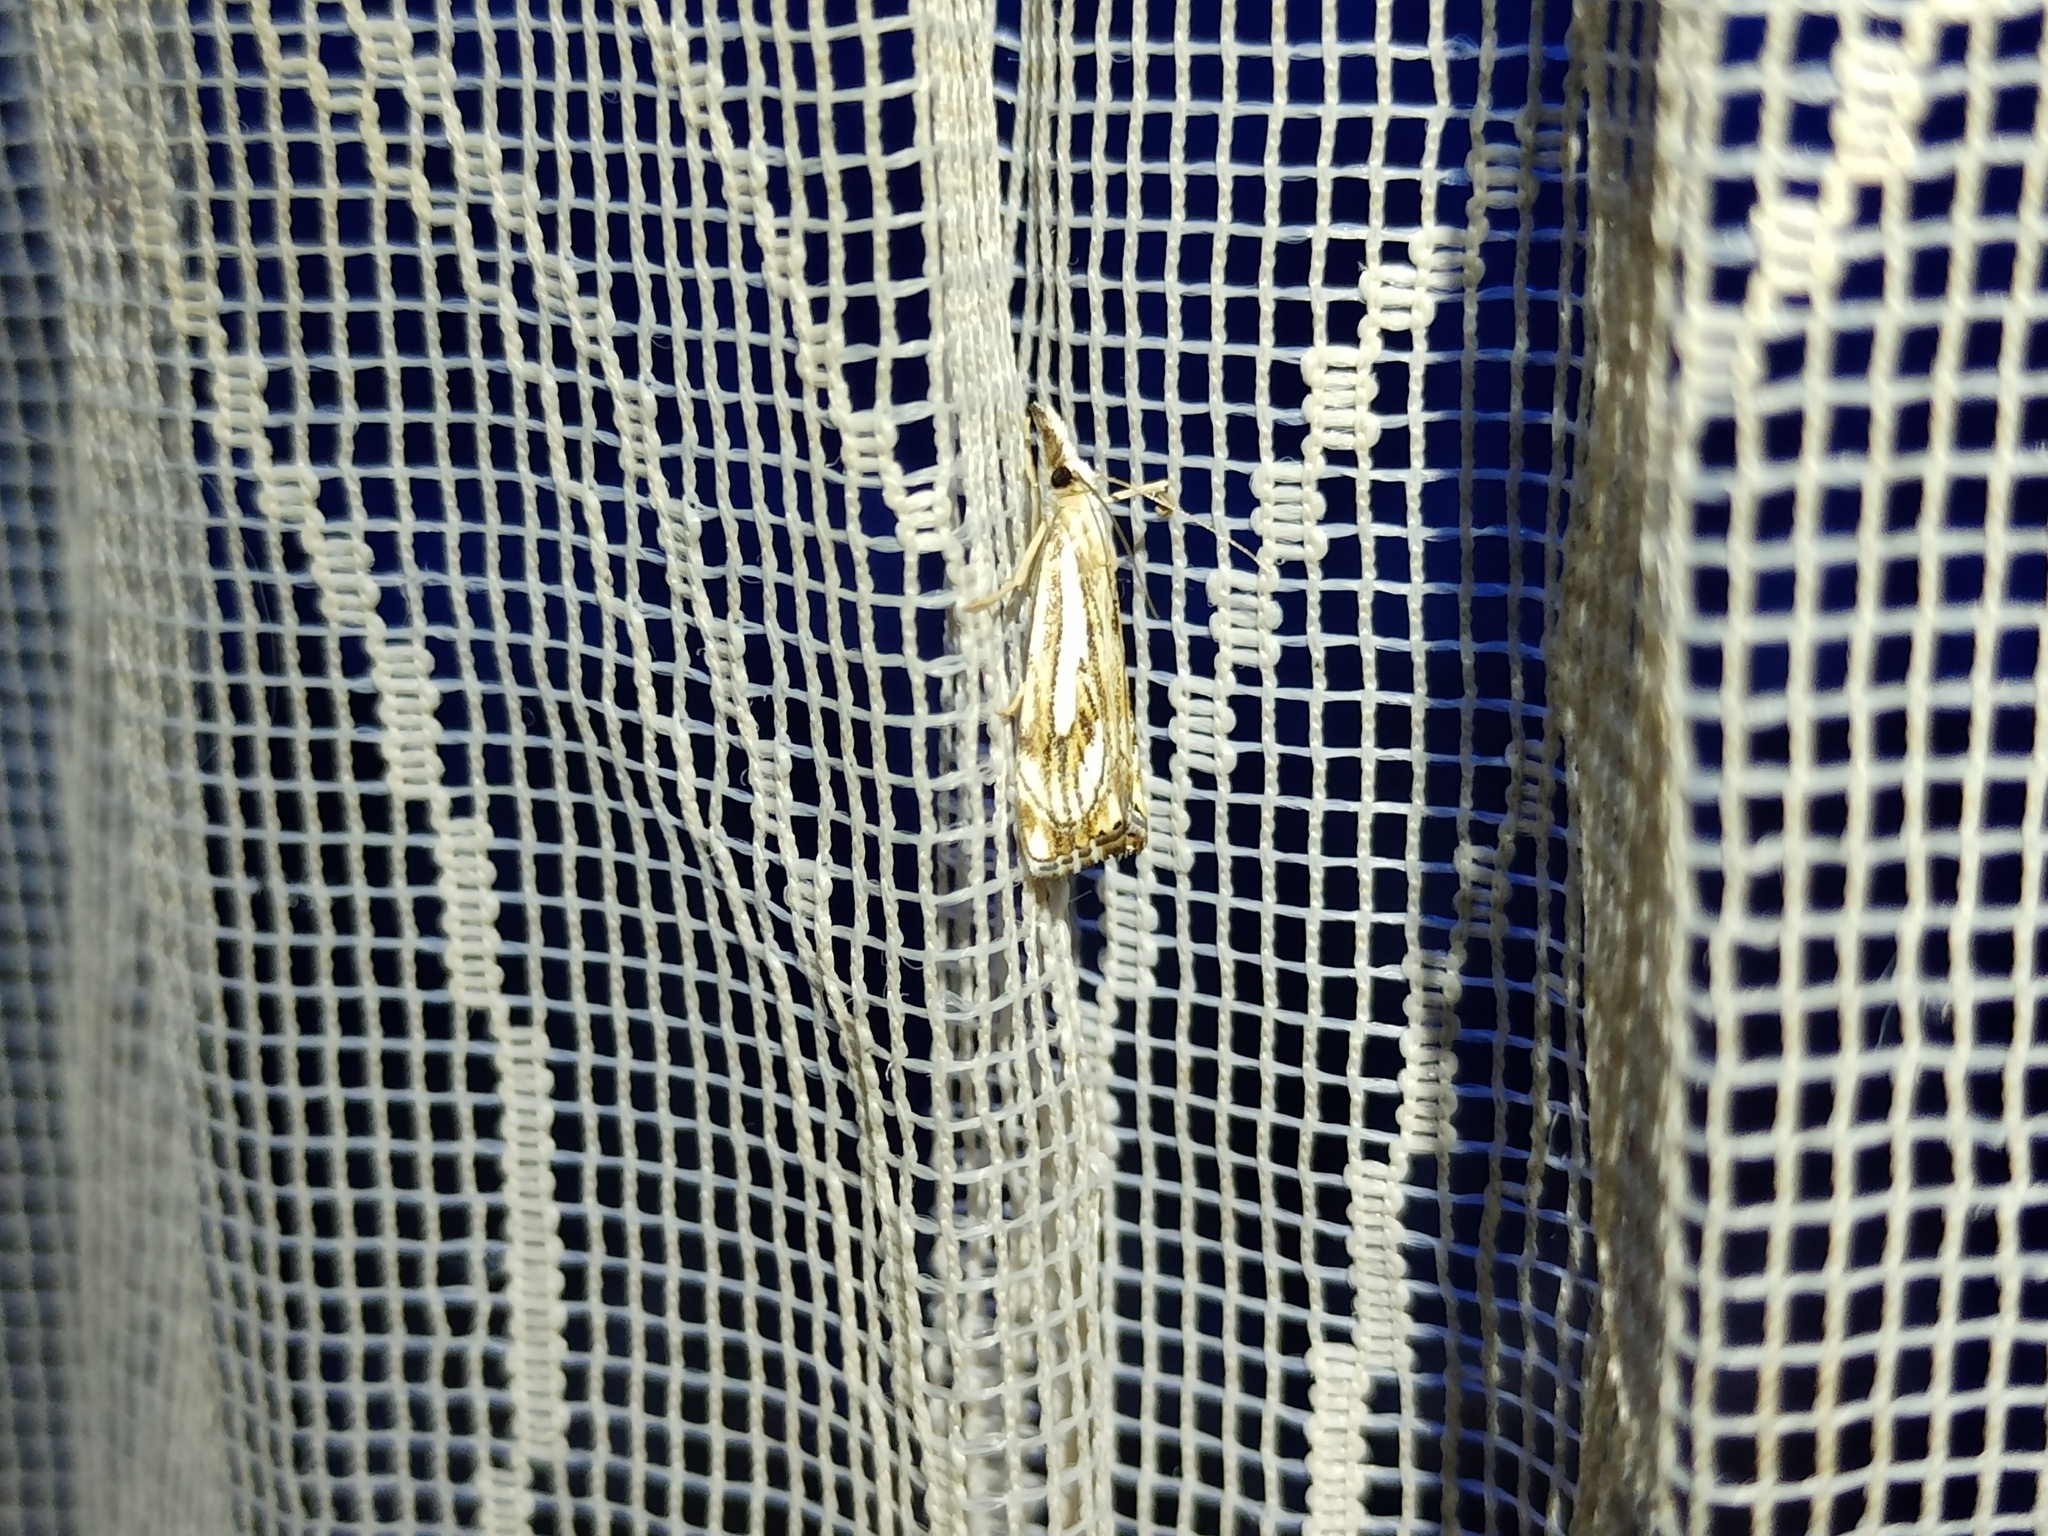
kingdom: Animalia
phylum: Arthropoda
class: Insecta
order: Lepidoptera
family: Crambidae
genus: Catoptria
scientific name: Catoptria falsella
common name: Chequered grass-veneer
